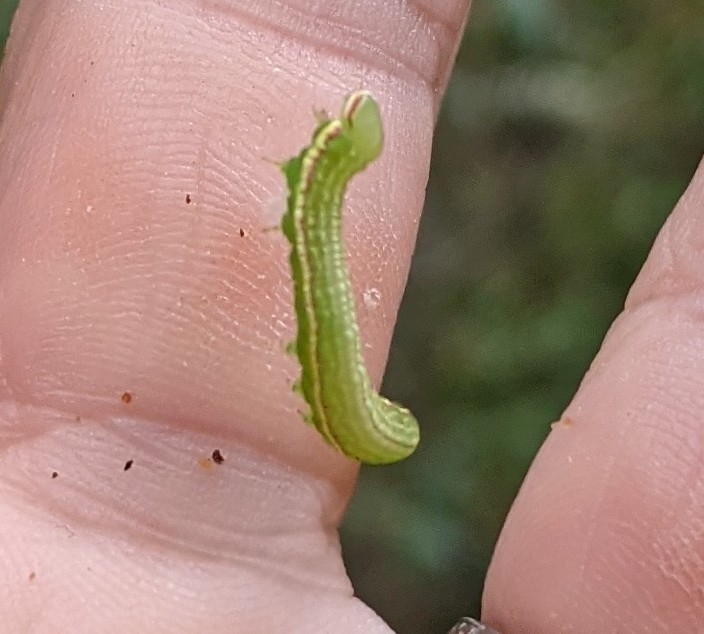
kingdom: Animalia
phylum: Arthropoda
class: Insecta
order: Lepidoptera
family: Notodontidae
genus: Peridea
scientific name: Peridea angulosa
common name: Angulose prominent
